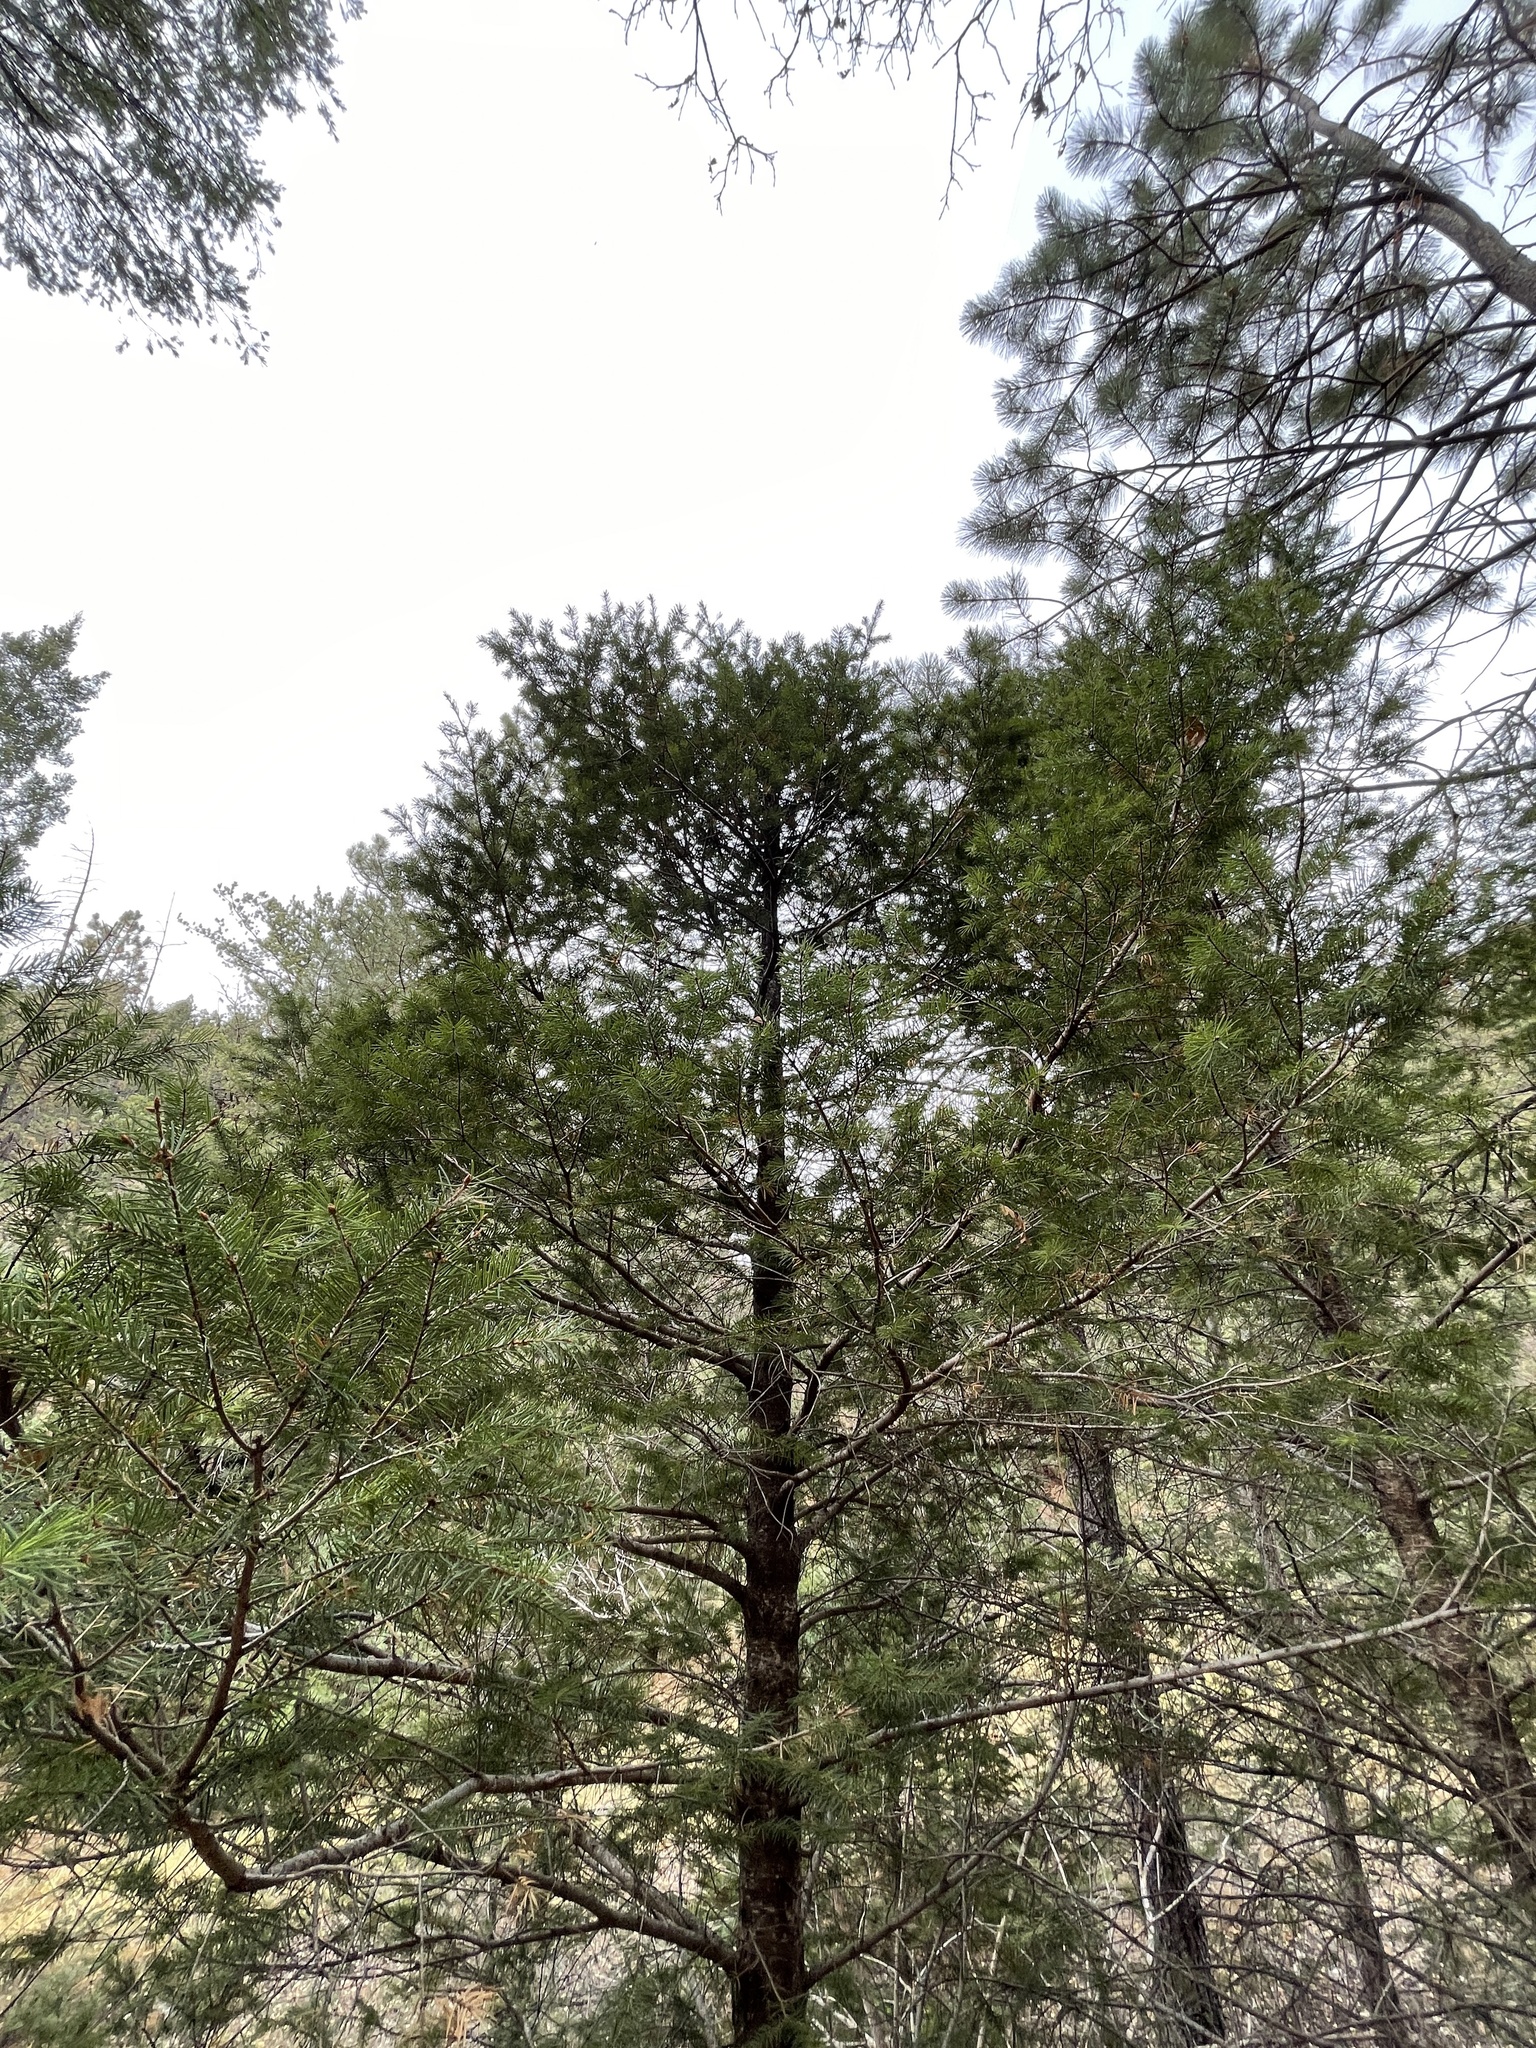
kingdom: Plantae
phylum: Tracheophyta
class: Pinopsida
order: Pinales
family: Pinaceae
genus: Pseudotsuga
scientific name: Pseudotsuga menziesii
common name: Douglas fir
